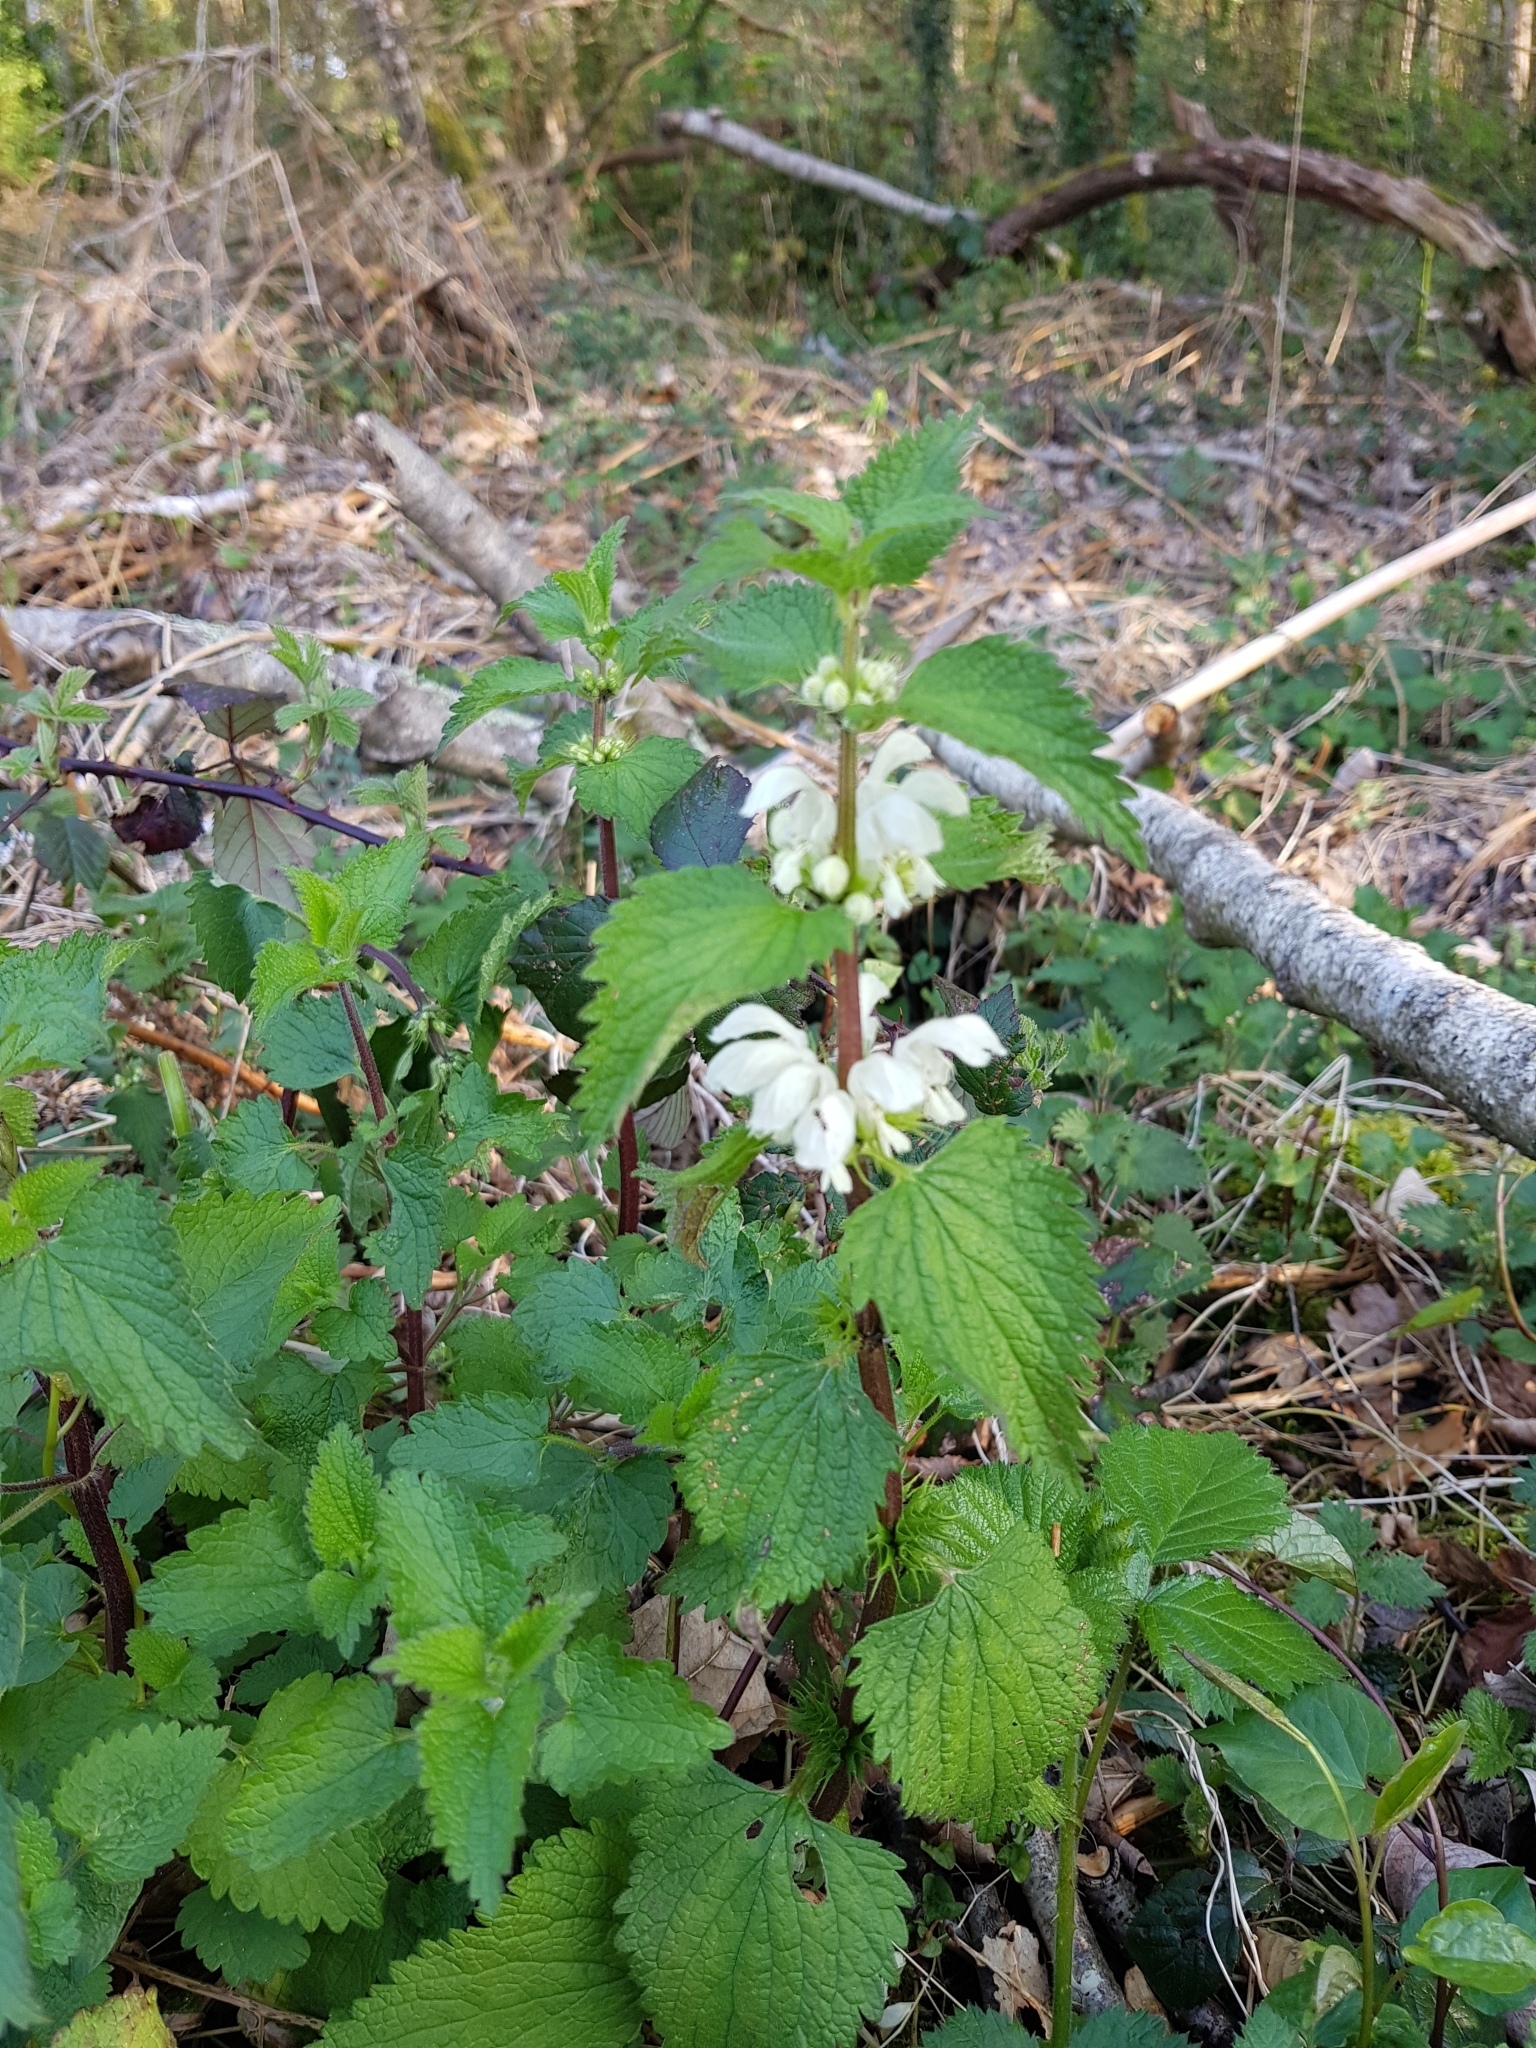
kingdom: Plantae
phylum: Tracheophyta
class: Magnoliopsida
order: Lamiales
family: Lamiaceae
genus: Lamium
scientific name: Lamium album
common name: White dead-nettle
